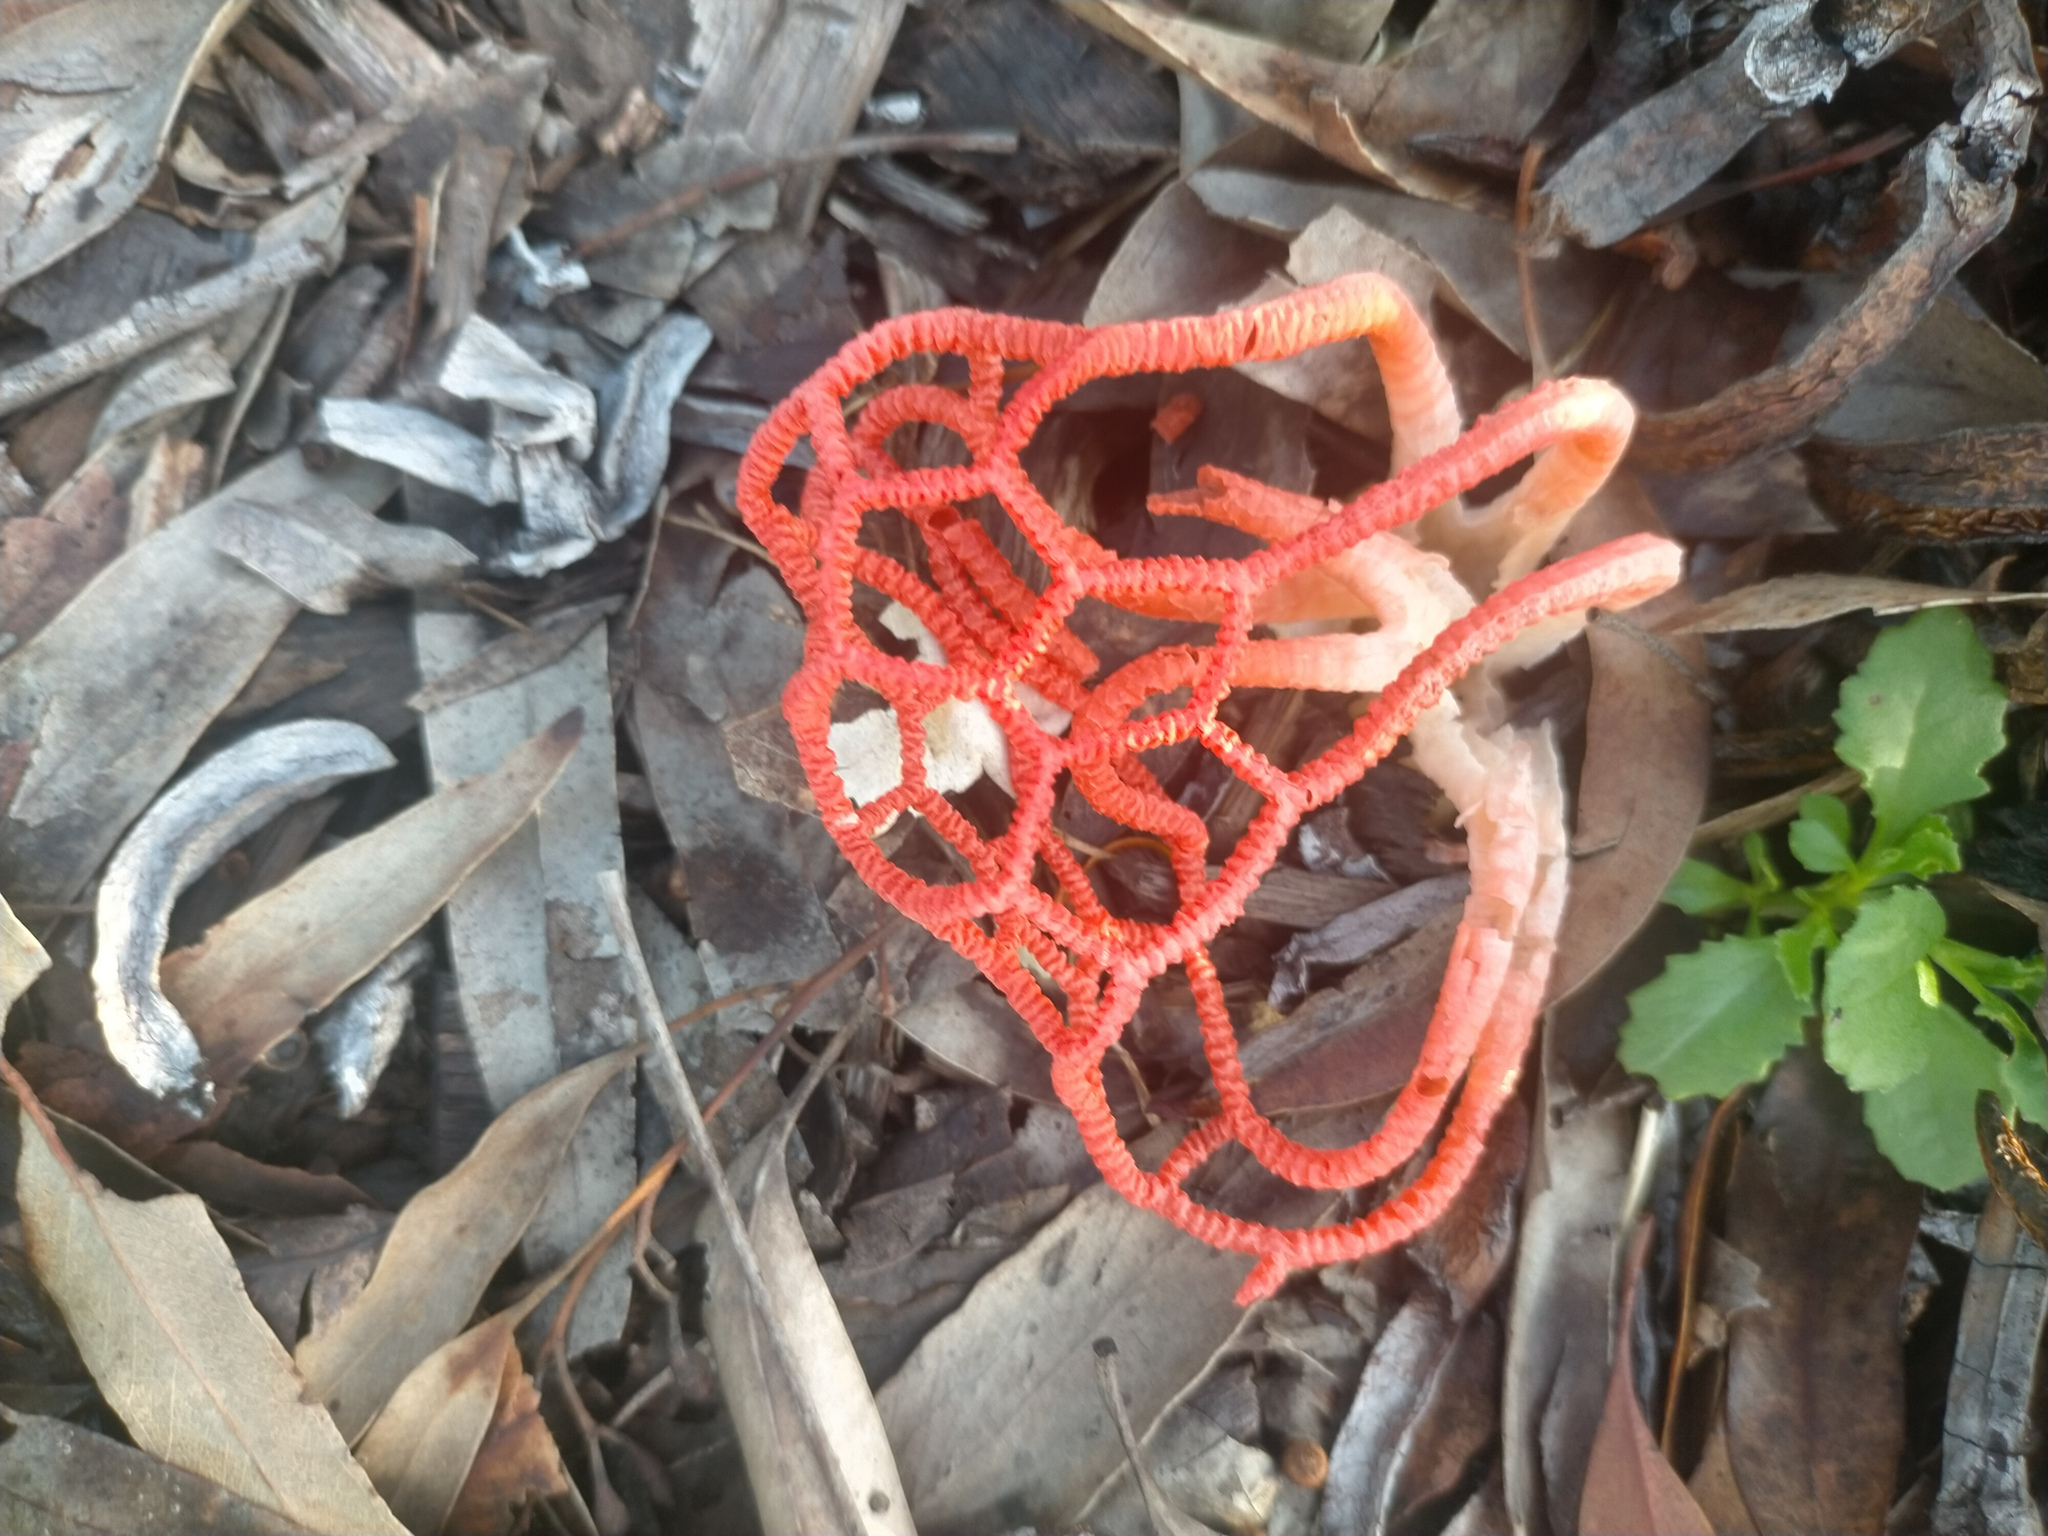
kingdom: Fungi
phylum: Basidiomycota
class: Agaricomycetes
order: Phallales
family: Phallaceae
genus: Colus
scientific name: Colus pusillus
